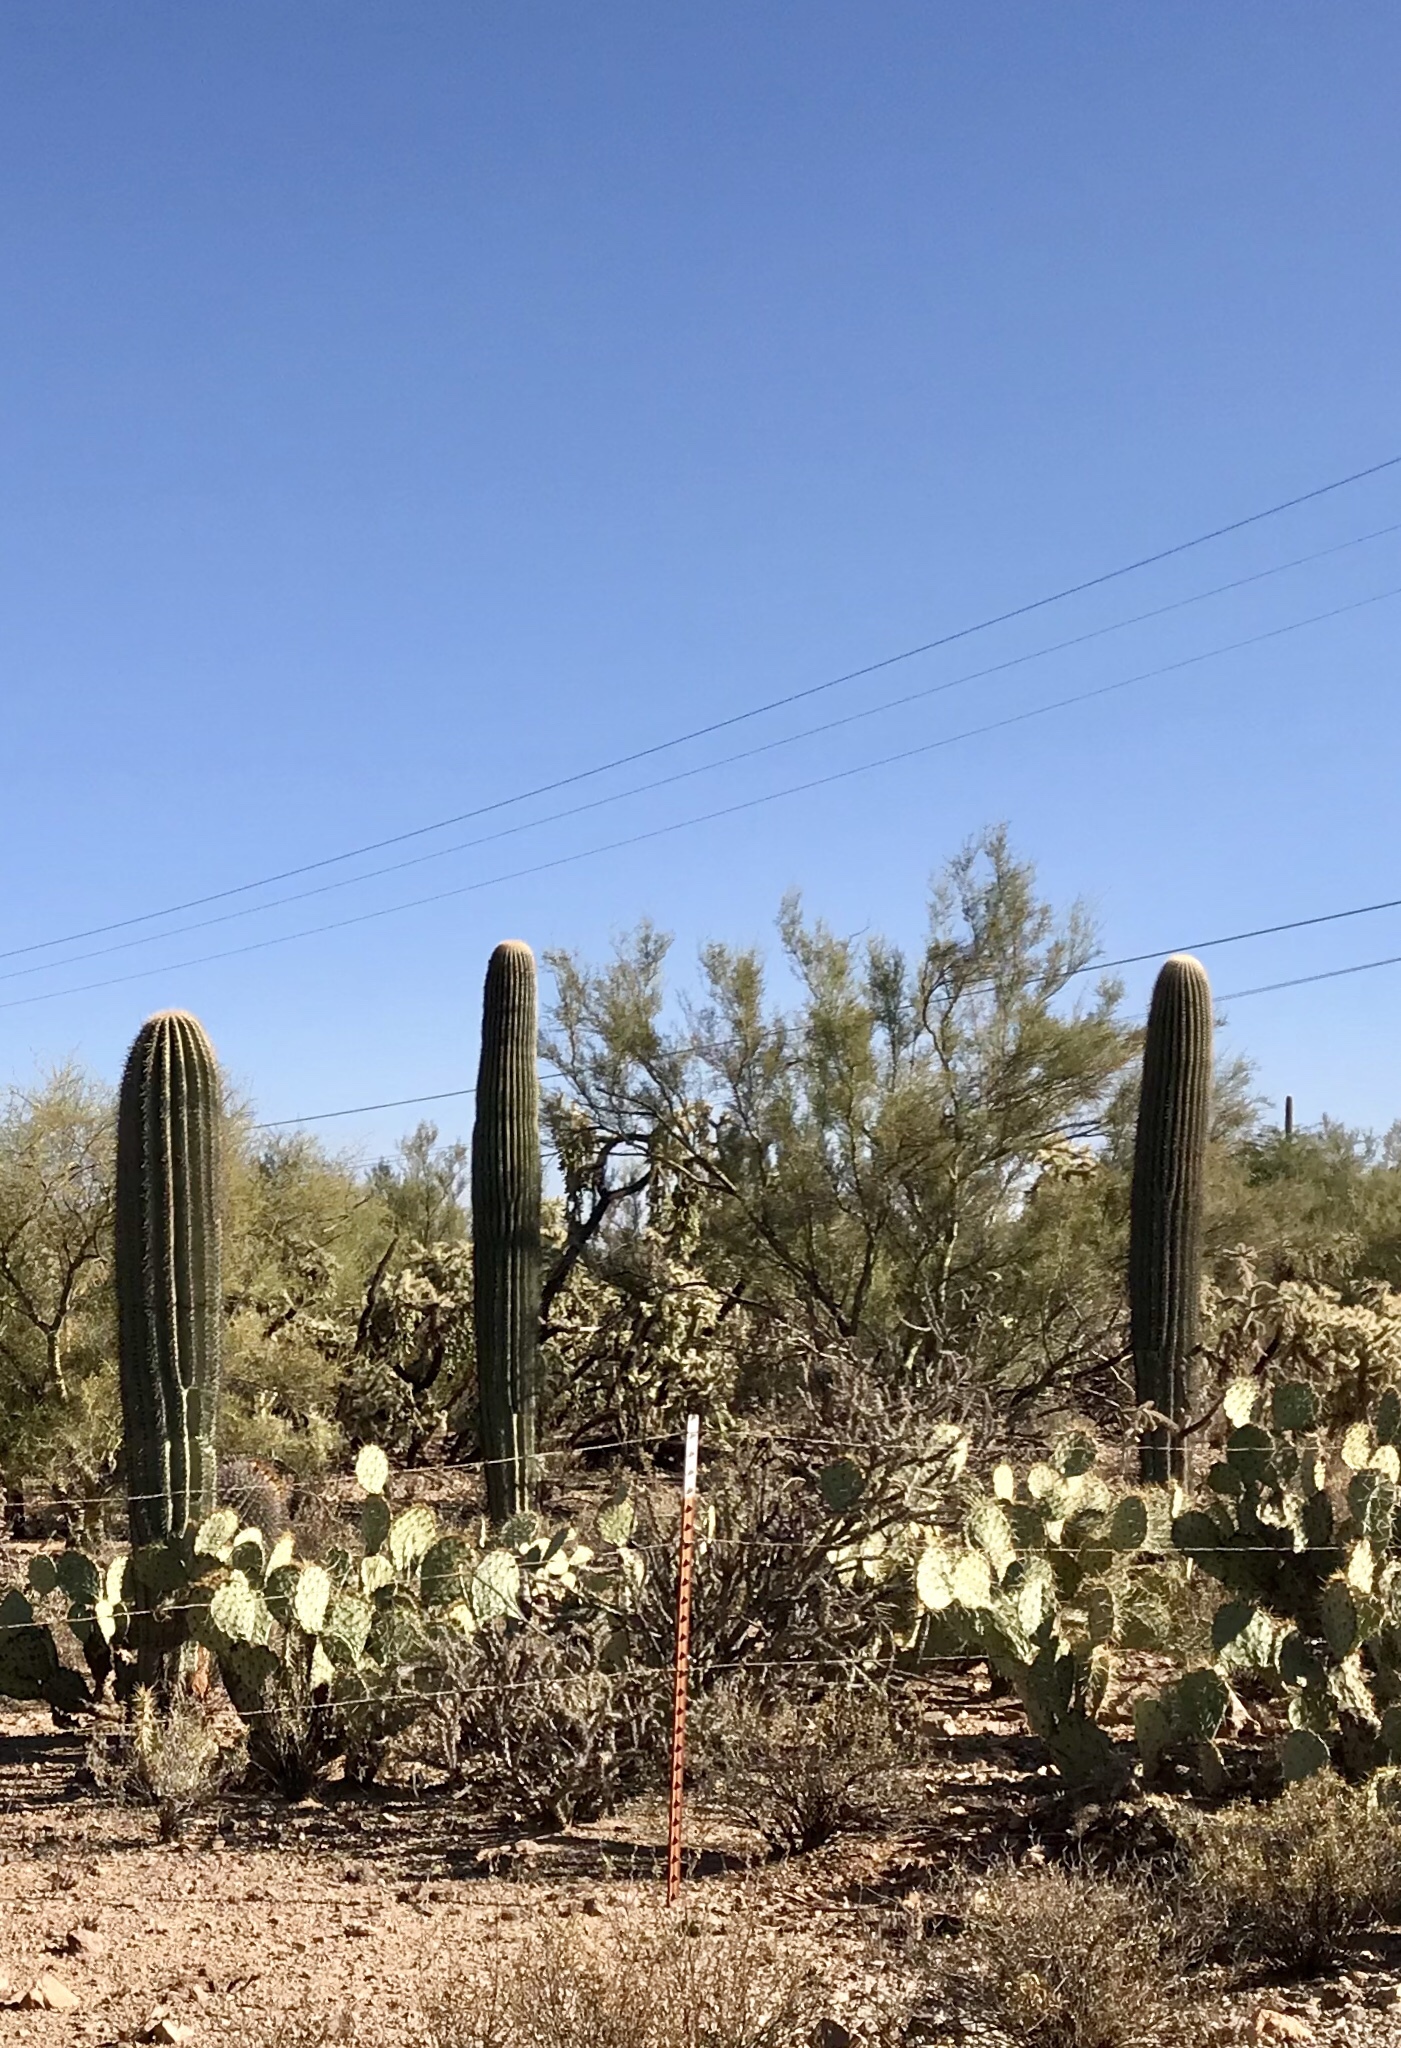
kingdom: Plantae
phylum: Tracheophyta
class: Magnoliopsida
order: Caryophyllales
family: Cactaceae
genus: Carnegiea
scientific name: Carnegiea gigantea
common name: Saguaro
